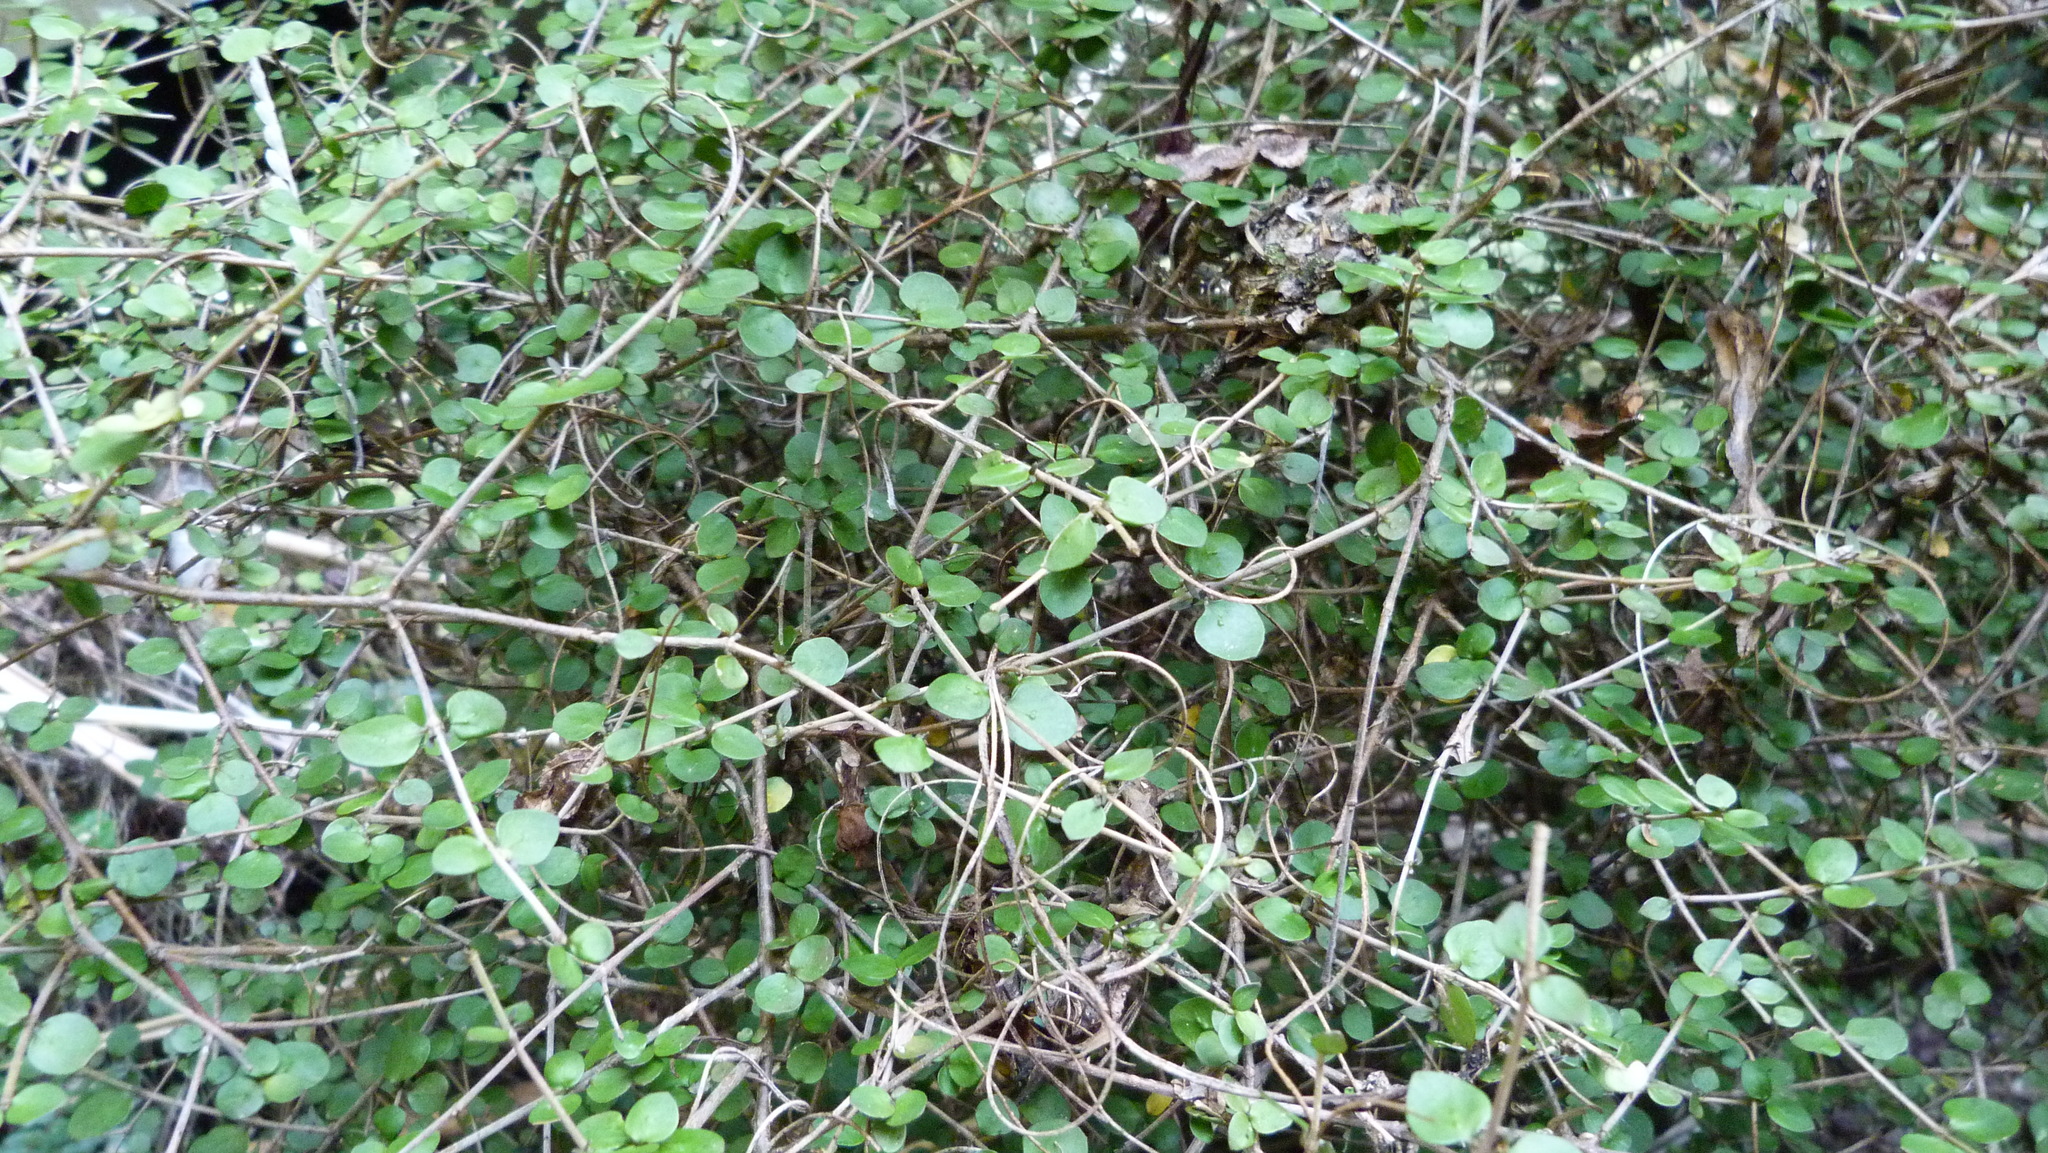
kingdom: Plantae
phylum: Tracheophyta
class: Magnoliopsida
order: Gentianales
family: Rubiaceae
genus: Coprosma
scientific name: Coprosma rhamnoides
